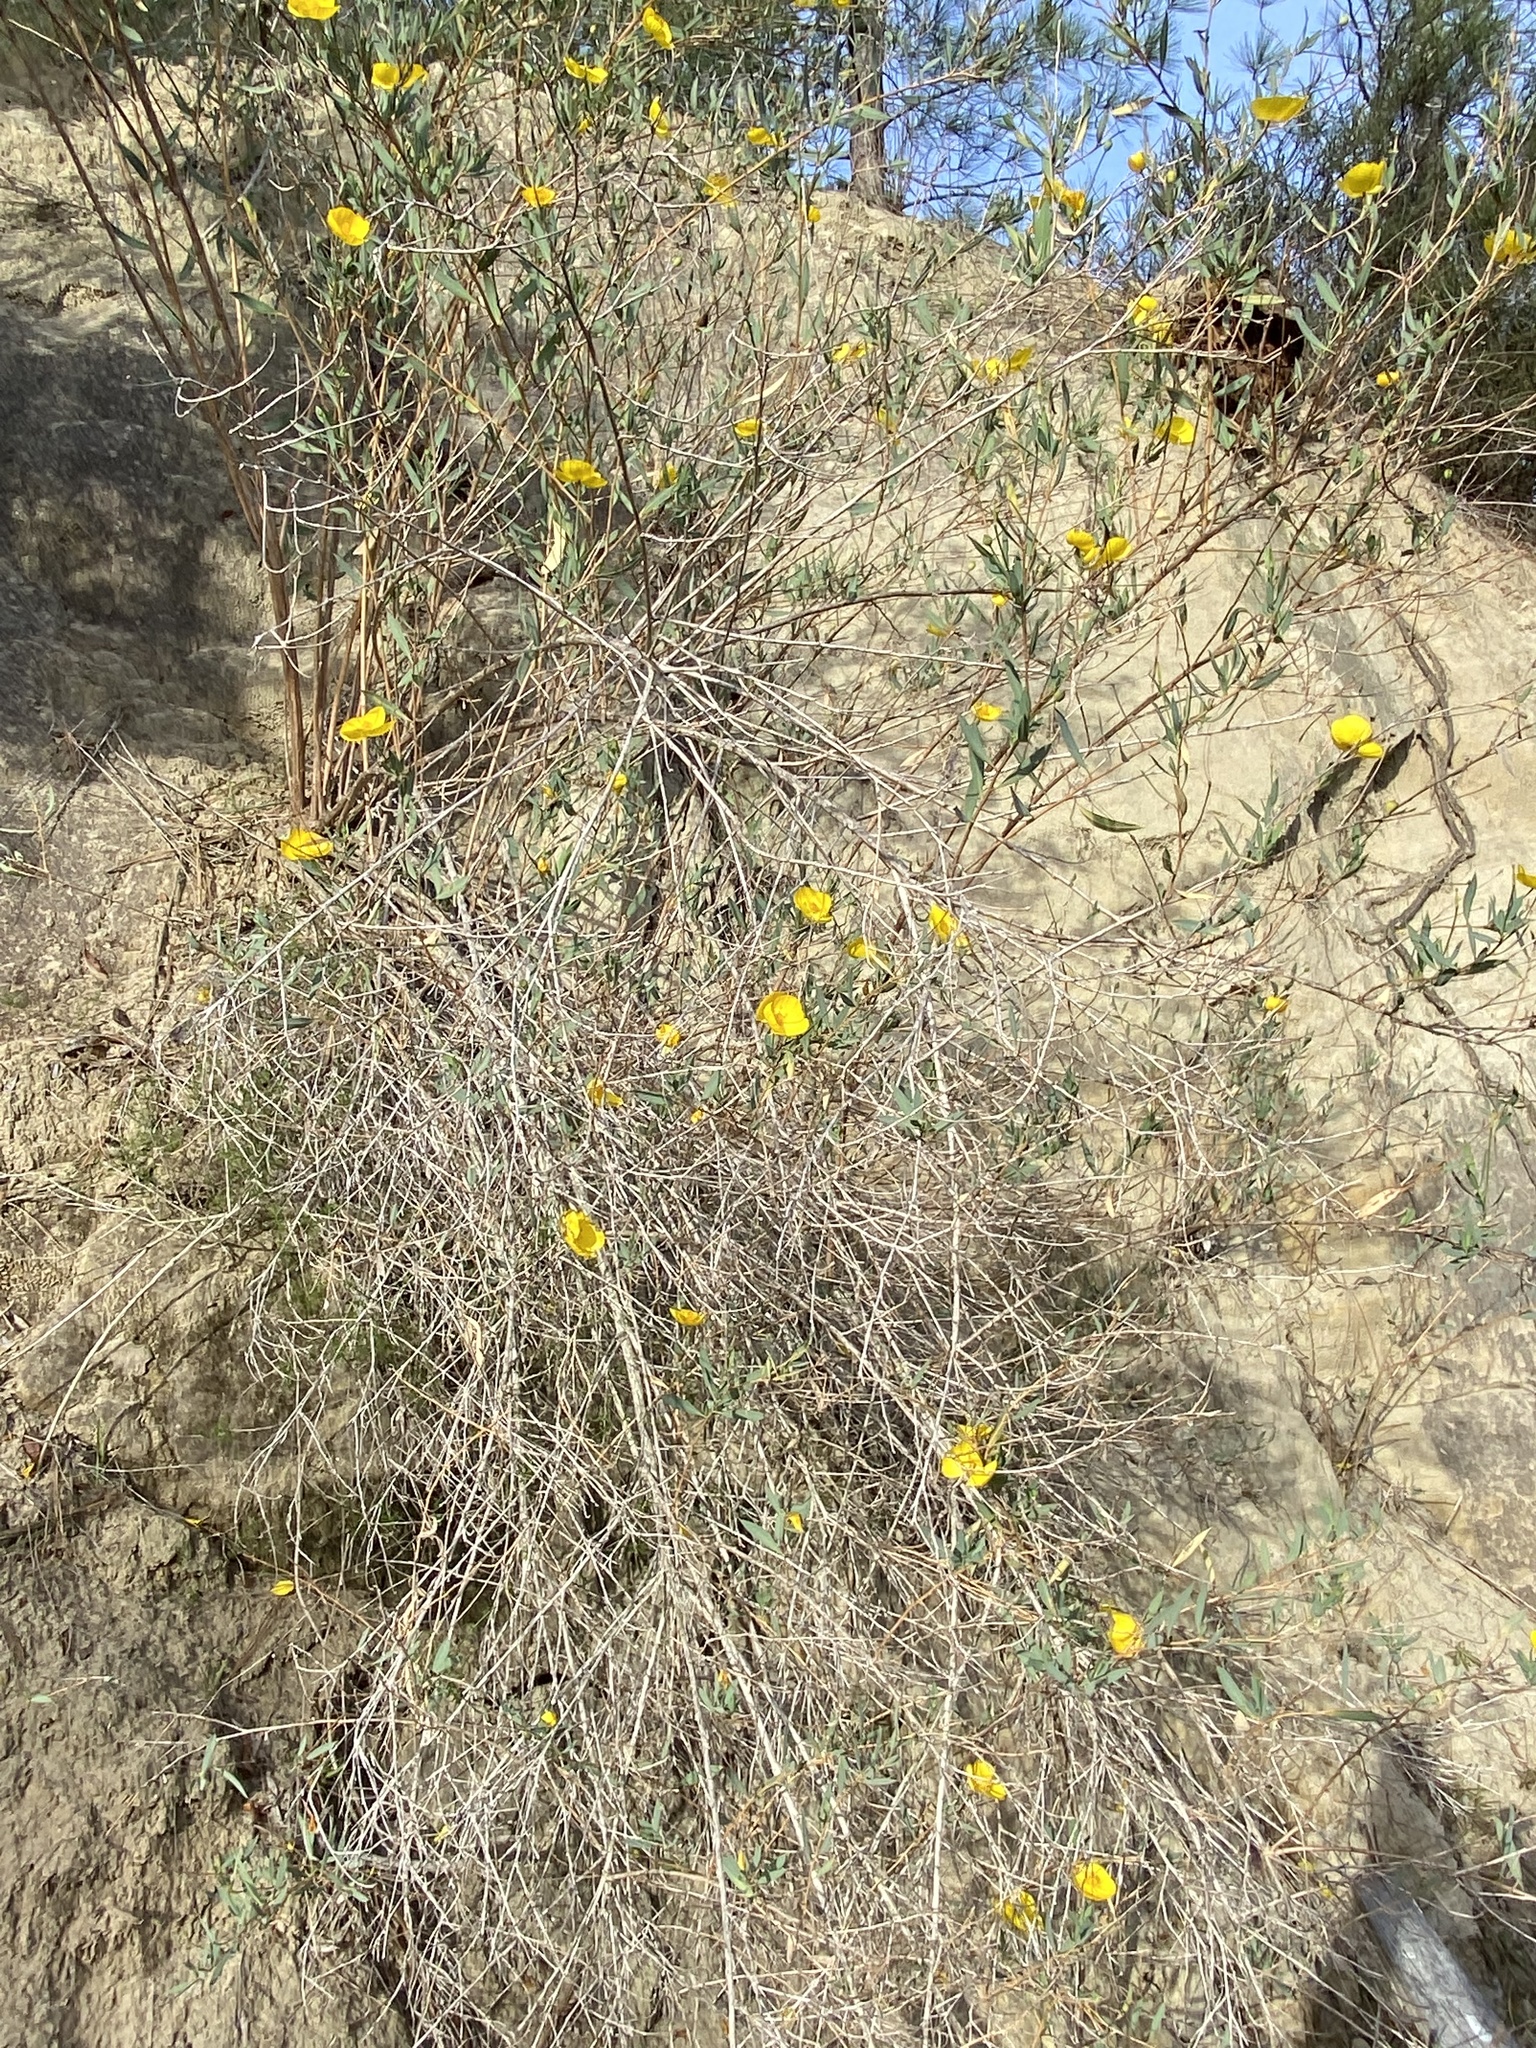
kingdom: Plantae
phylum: Tracheophyta
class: Magnoliopsida
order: Ranunculales
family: Papaveraceae
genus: Dendromecon
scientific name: Dendromecon rigida
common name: Tree poppy
